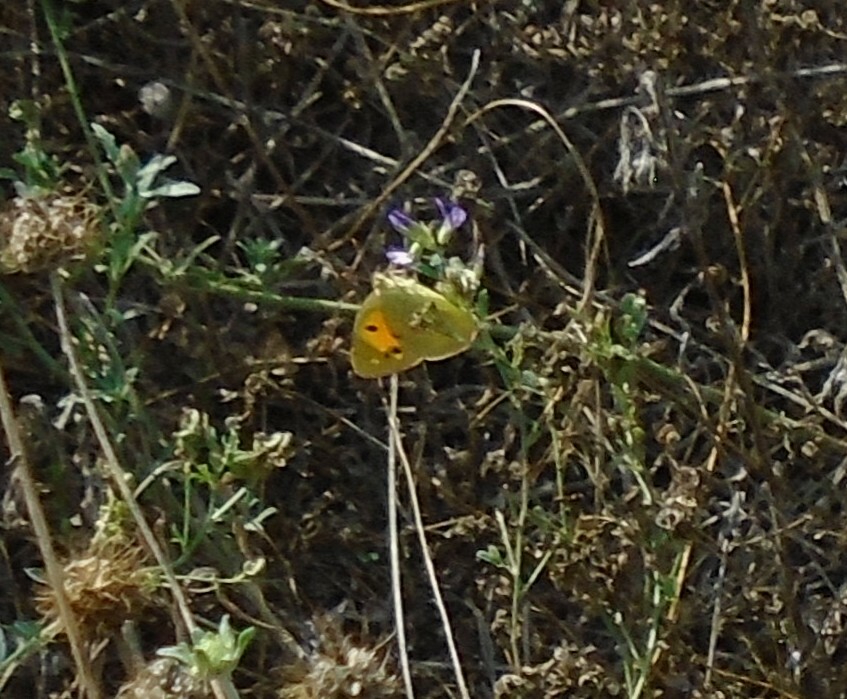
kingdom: Animalia
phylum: Arthropoda
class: Insecta
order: Lepidoptera
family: Pieridae
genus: Colias
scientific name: Colias croceus
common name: Clouded yellow
